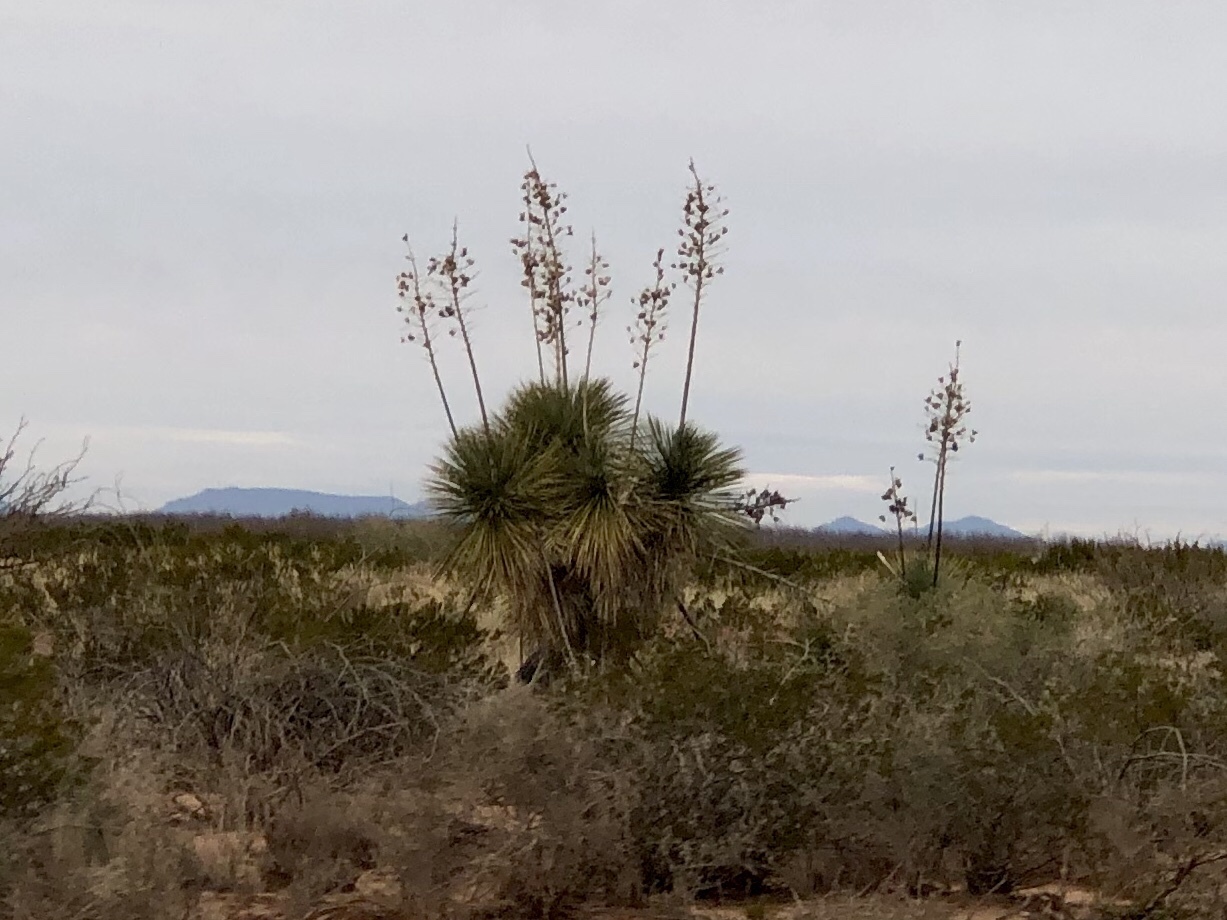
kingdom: Plantae
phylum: Tracheophyta
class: Liliopsida
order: Asparagales
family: Asparagaceae
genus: Yucca
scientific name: Yucca elata
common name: Palmella
